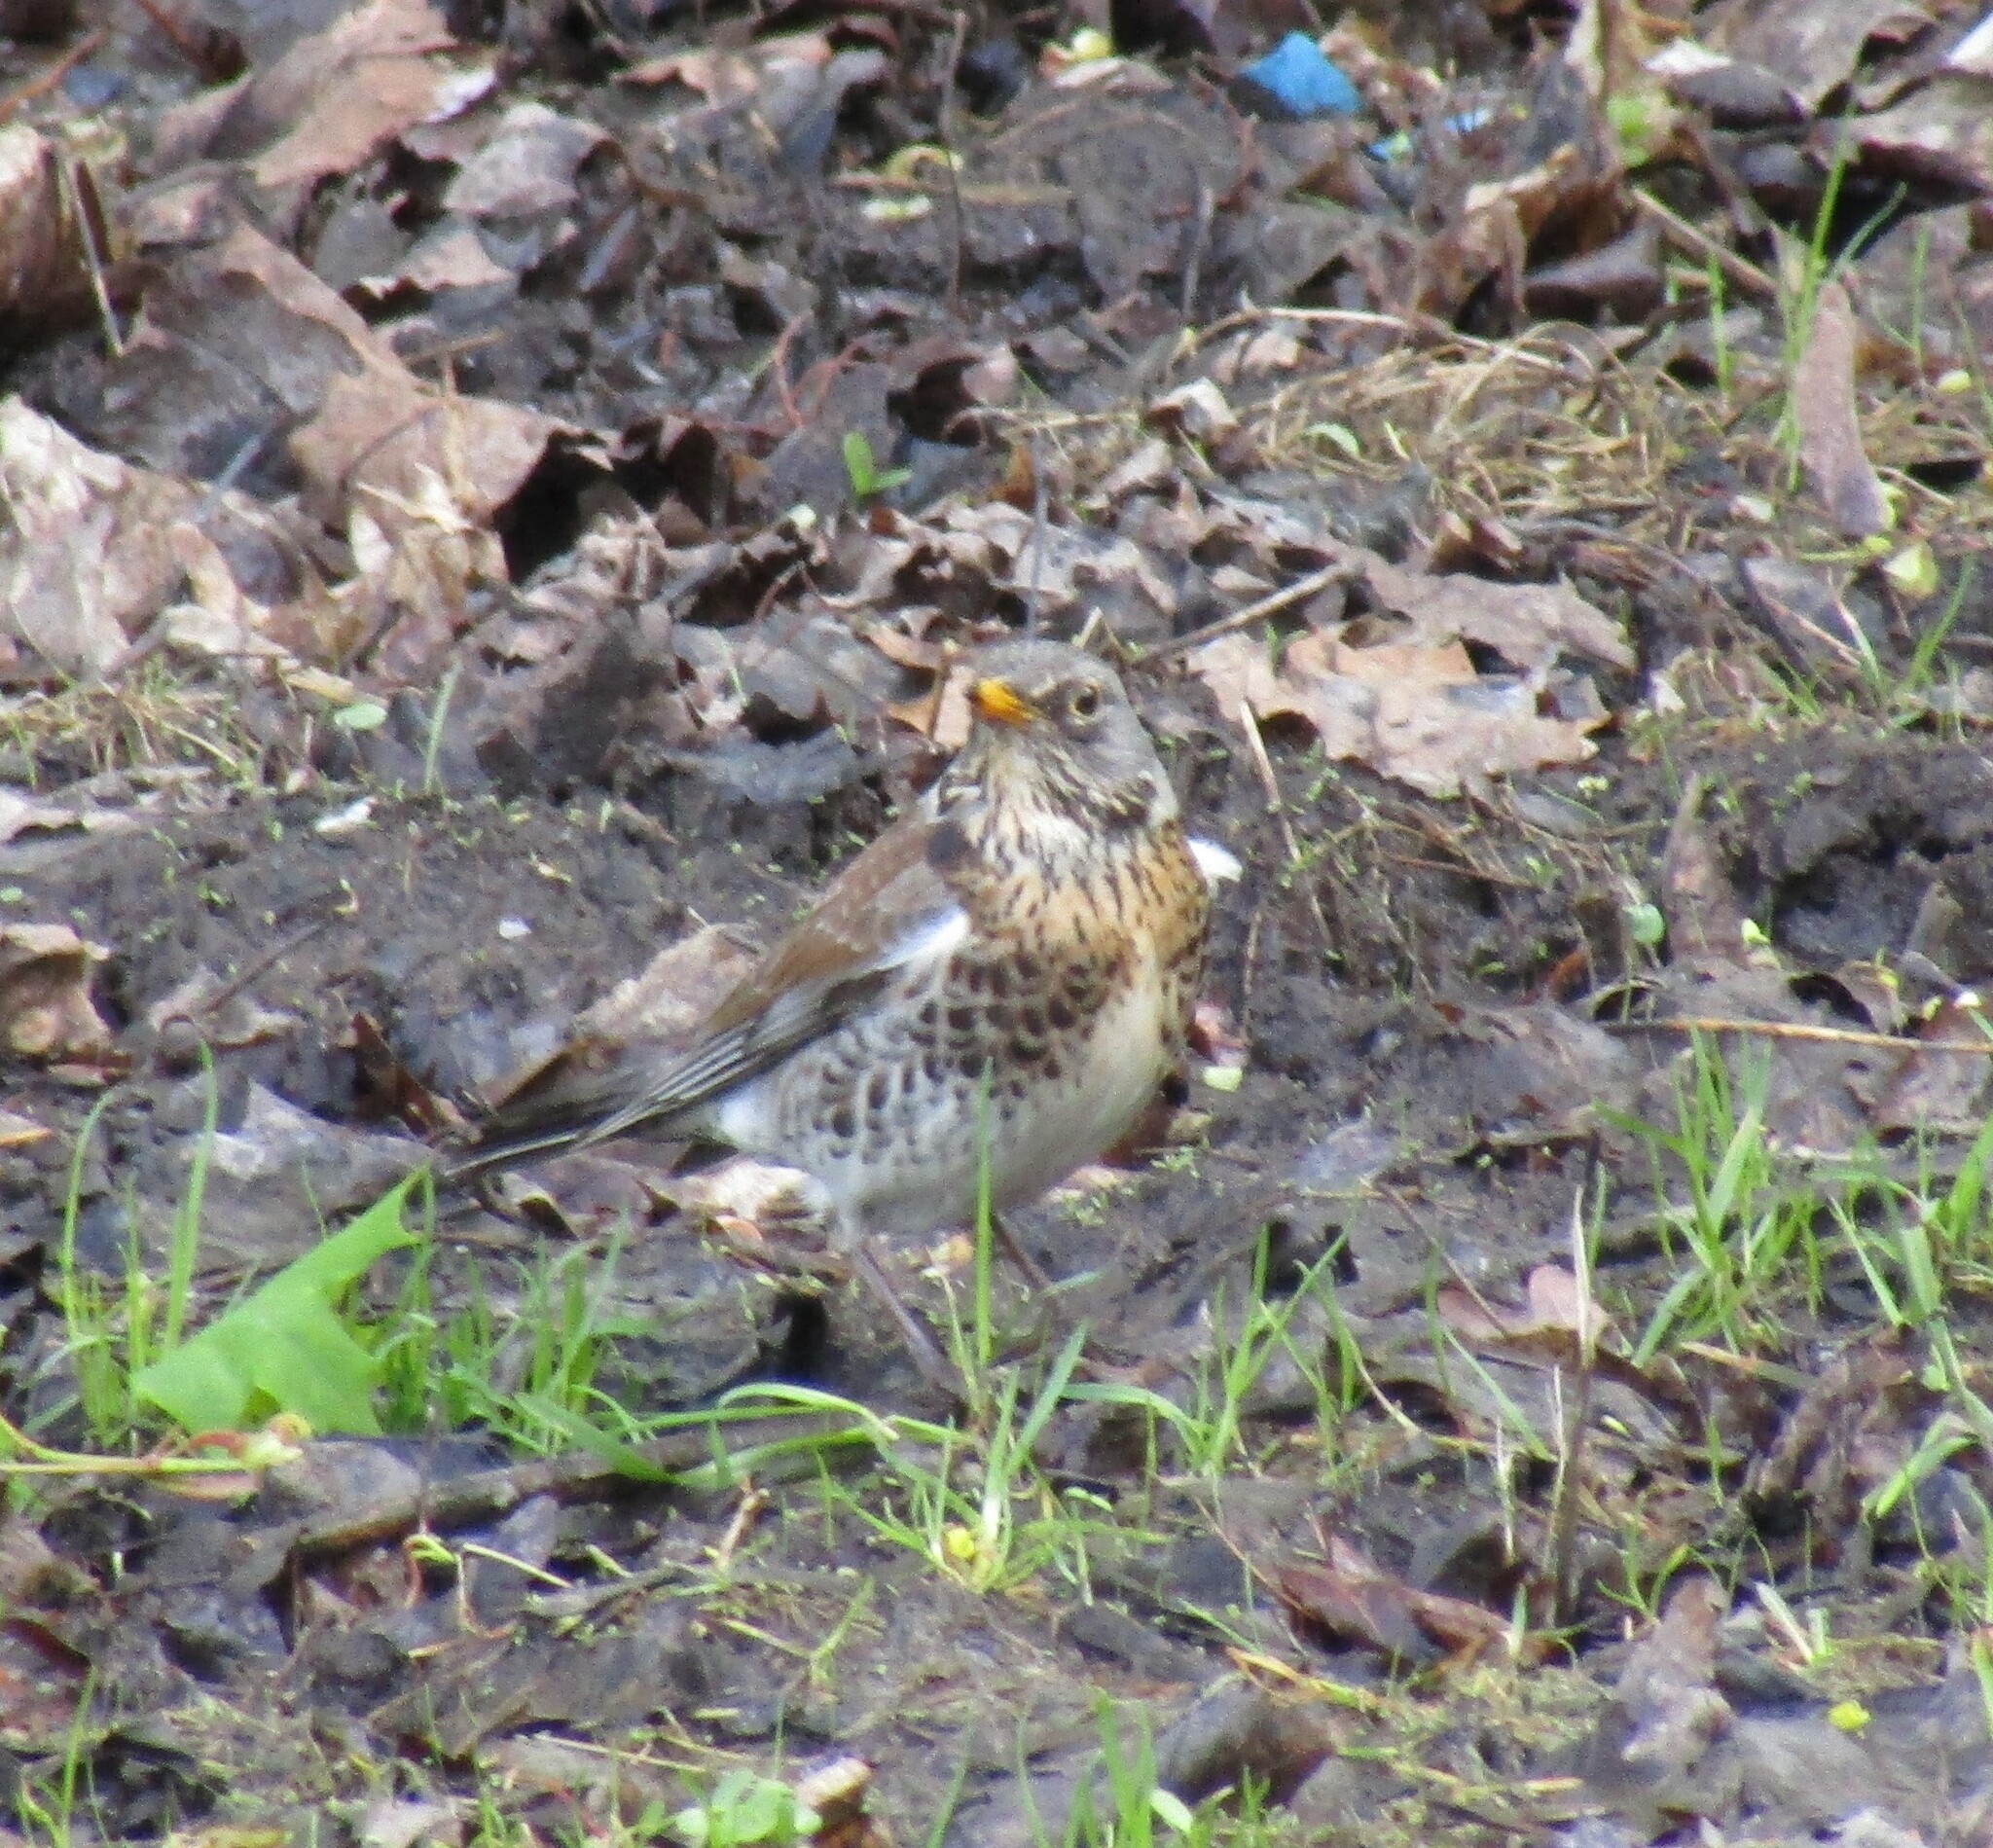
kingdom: Animalia
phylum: Chordata
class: Aves
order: Passeriformes
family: Turdidae
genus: Turdus
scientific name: Turdus pilaris
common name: Fieldfare
